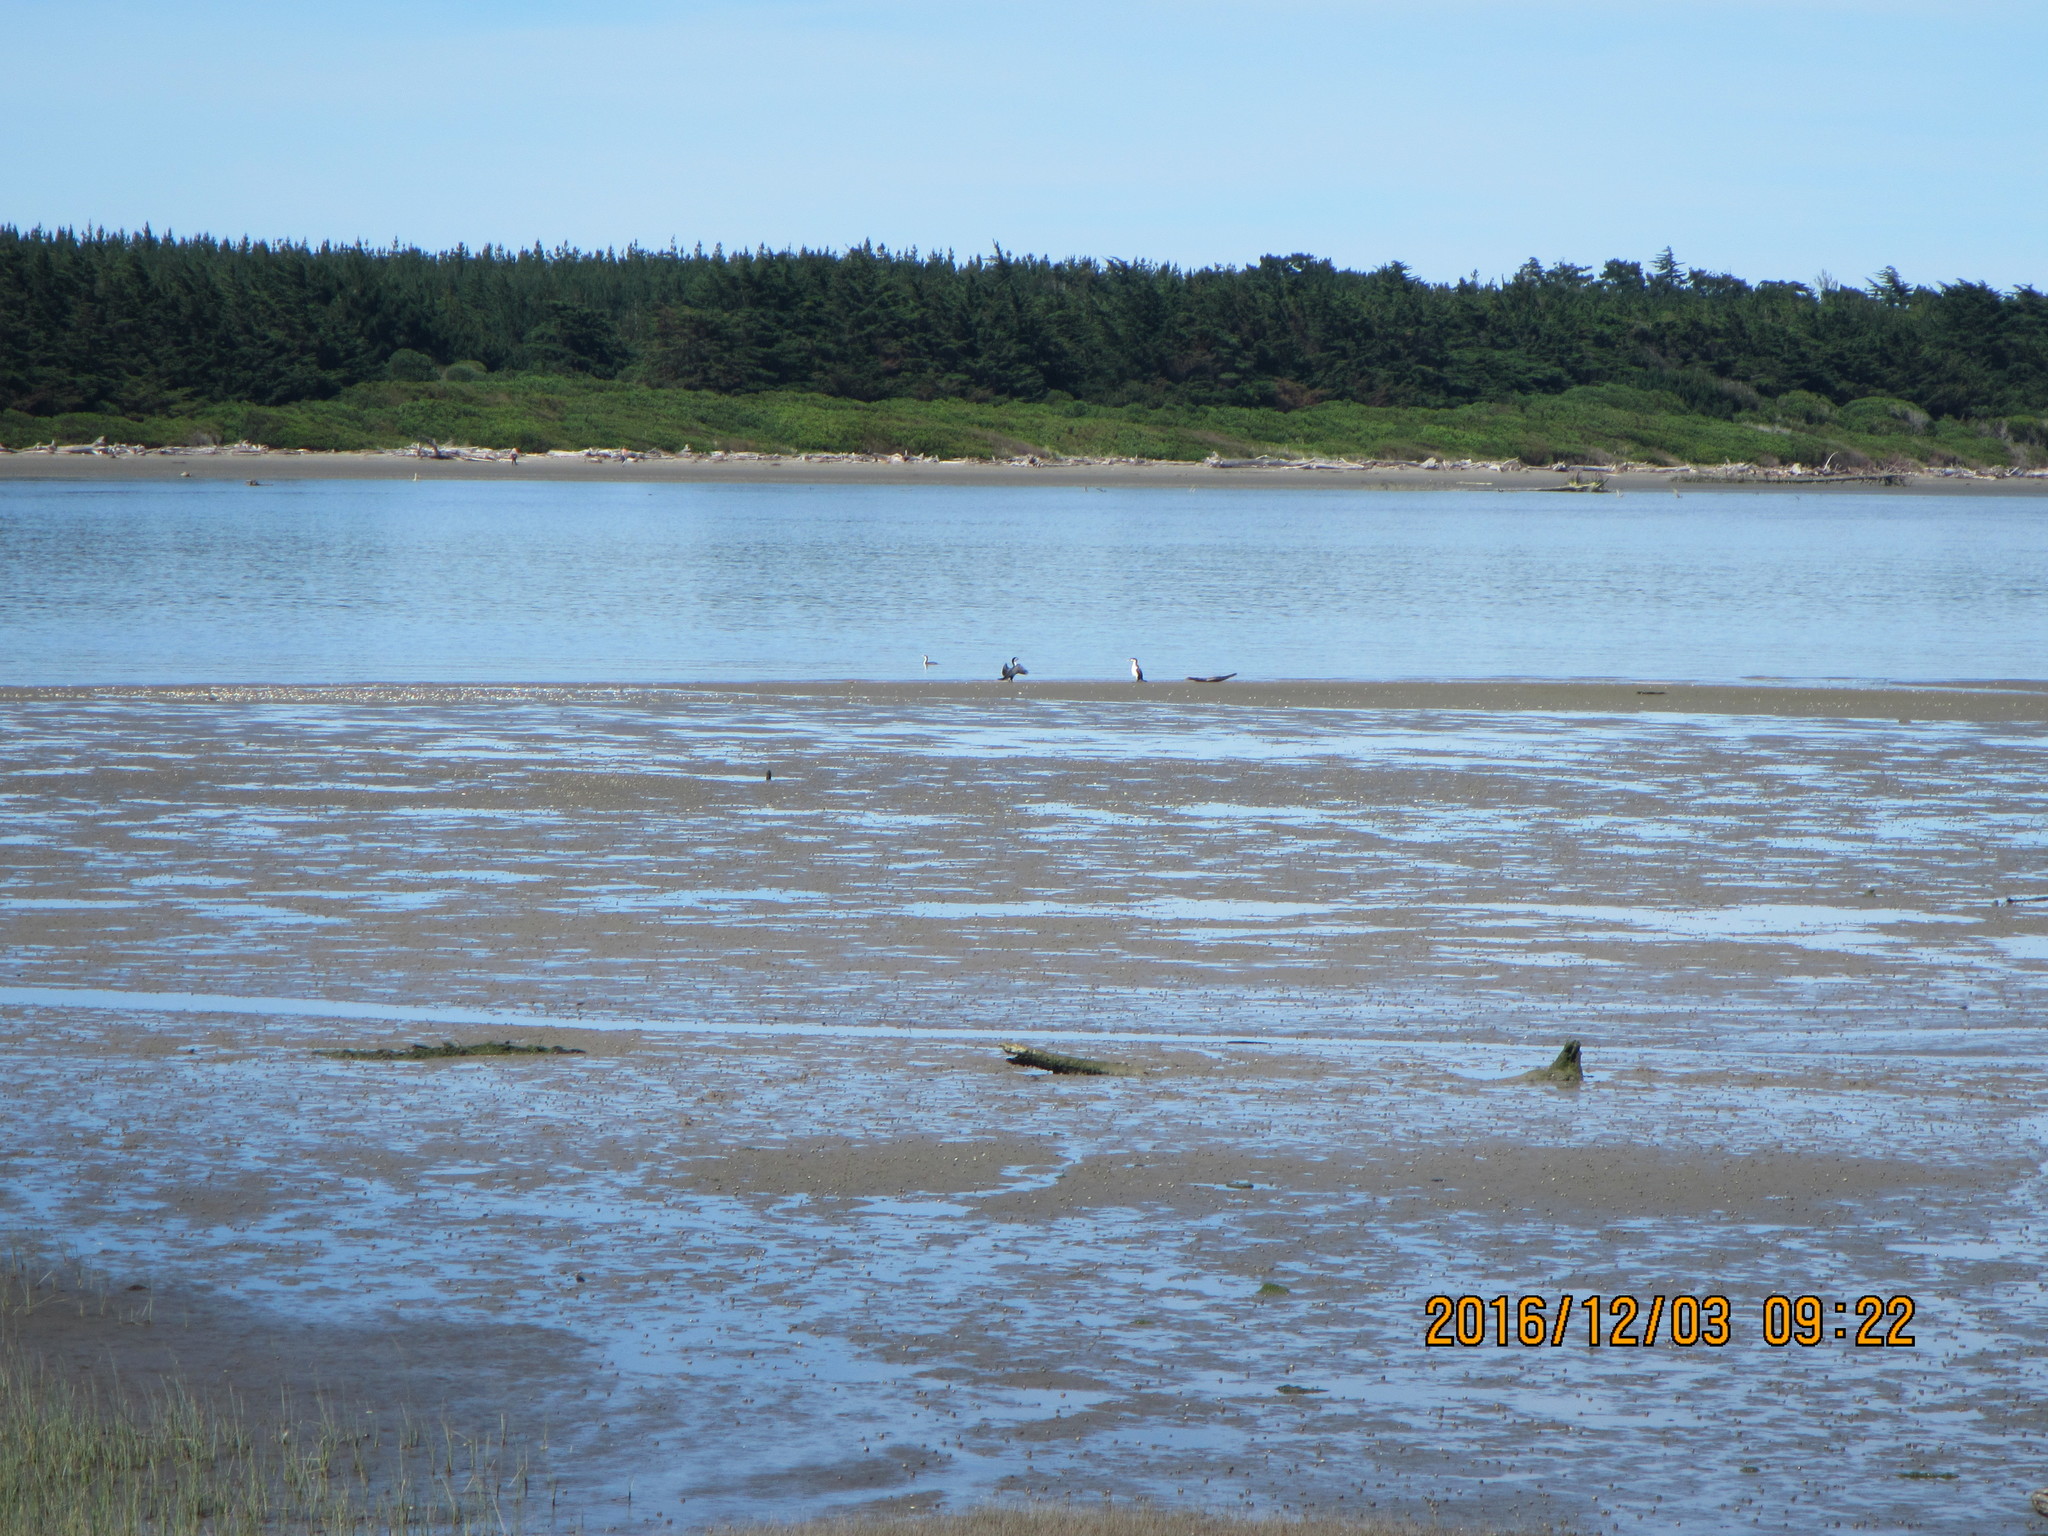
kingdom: Animalia
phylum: Chordata
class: Aves
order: Suliformes
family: Phalacrocoracidae
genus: Phalacrocorax
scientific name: Phalacrocorax varius
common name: Pied cormorant
